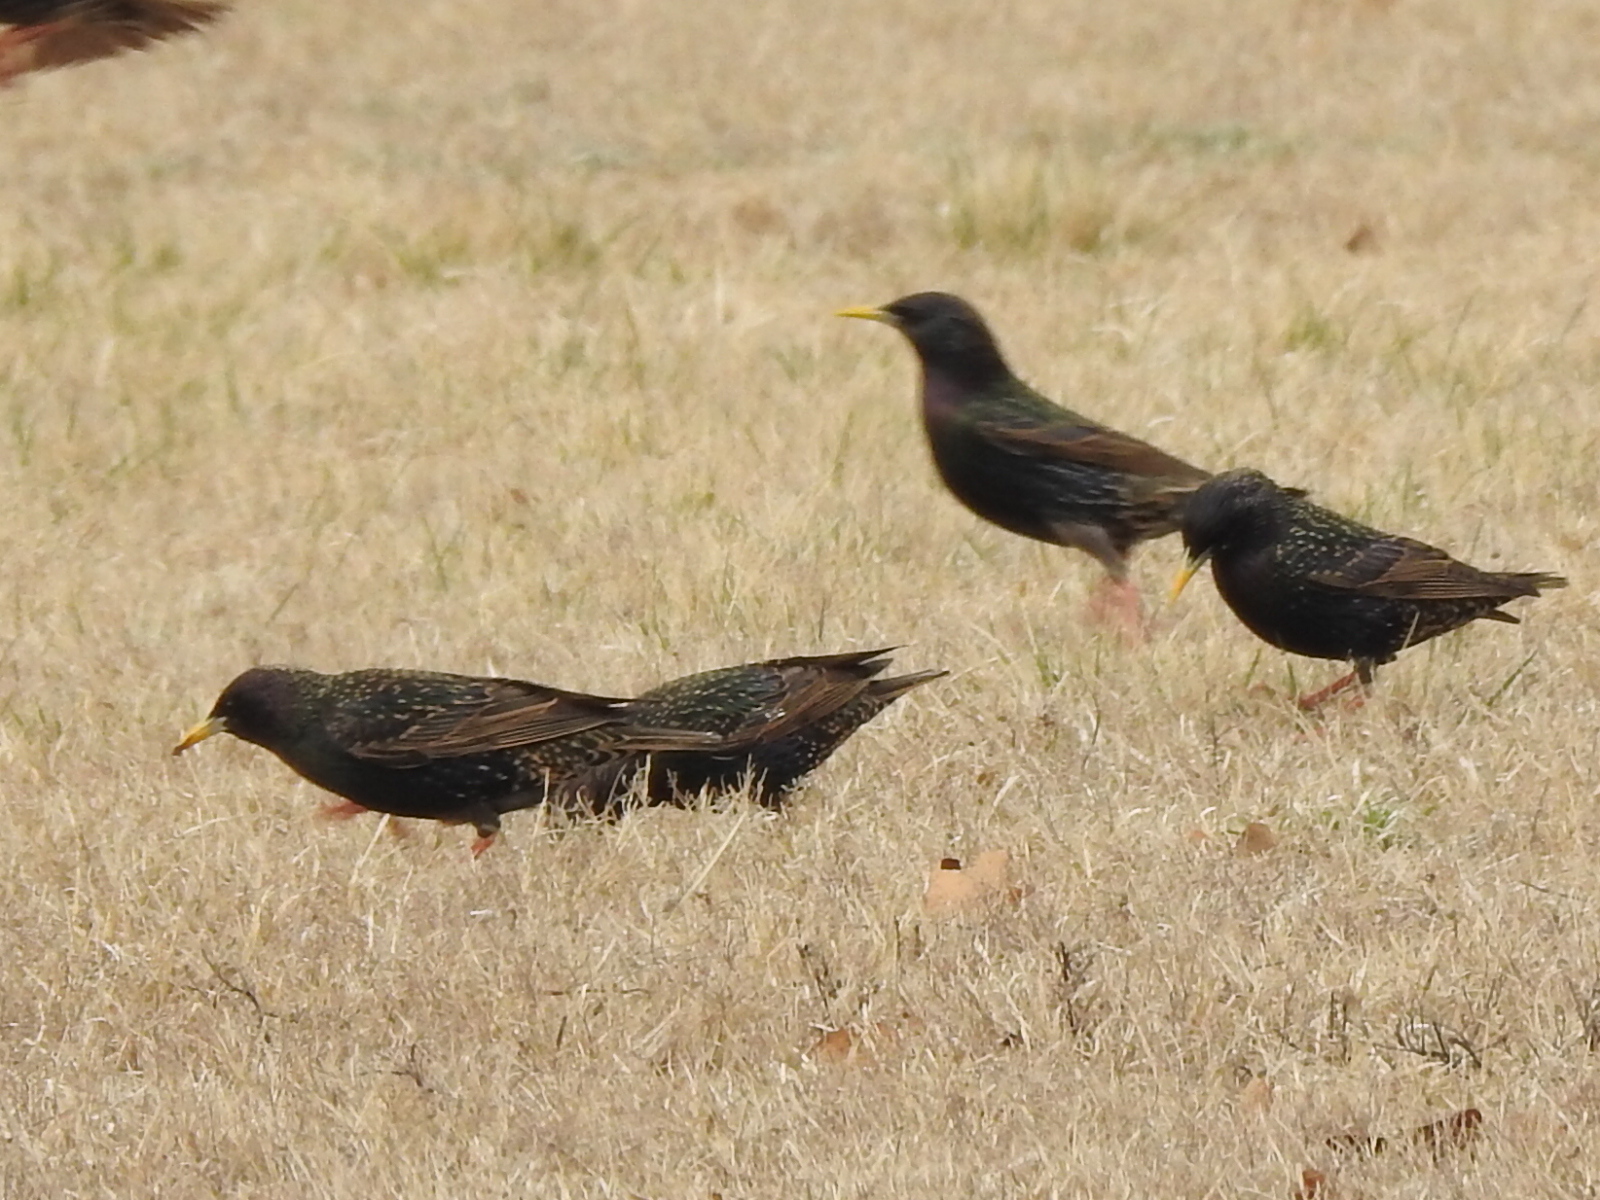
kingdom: Animalia
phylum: Chordata
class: Aves
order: Passeriformes
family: Sturnidae
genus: Sturnus
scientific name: Sturnus vulgaris
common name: Common starling
